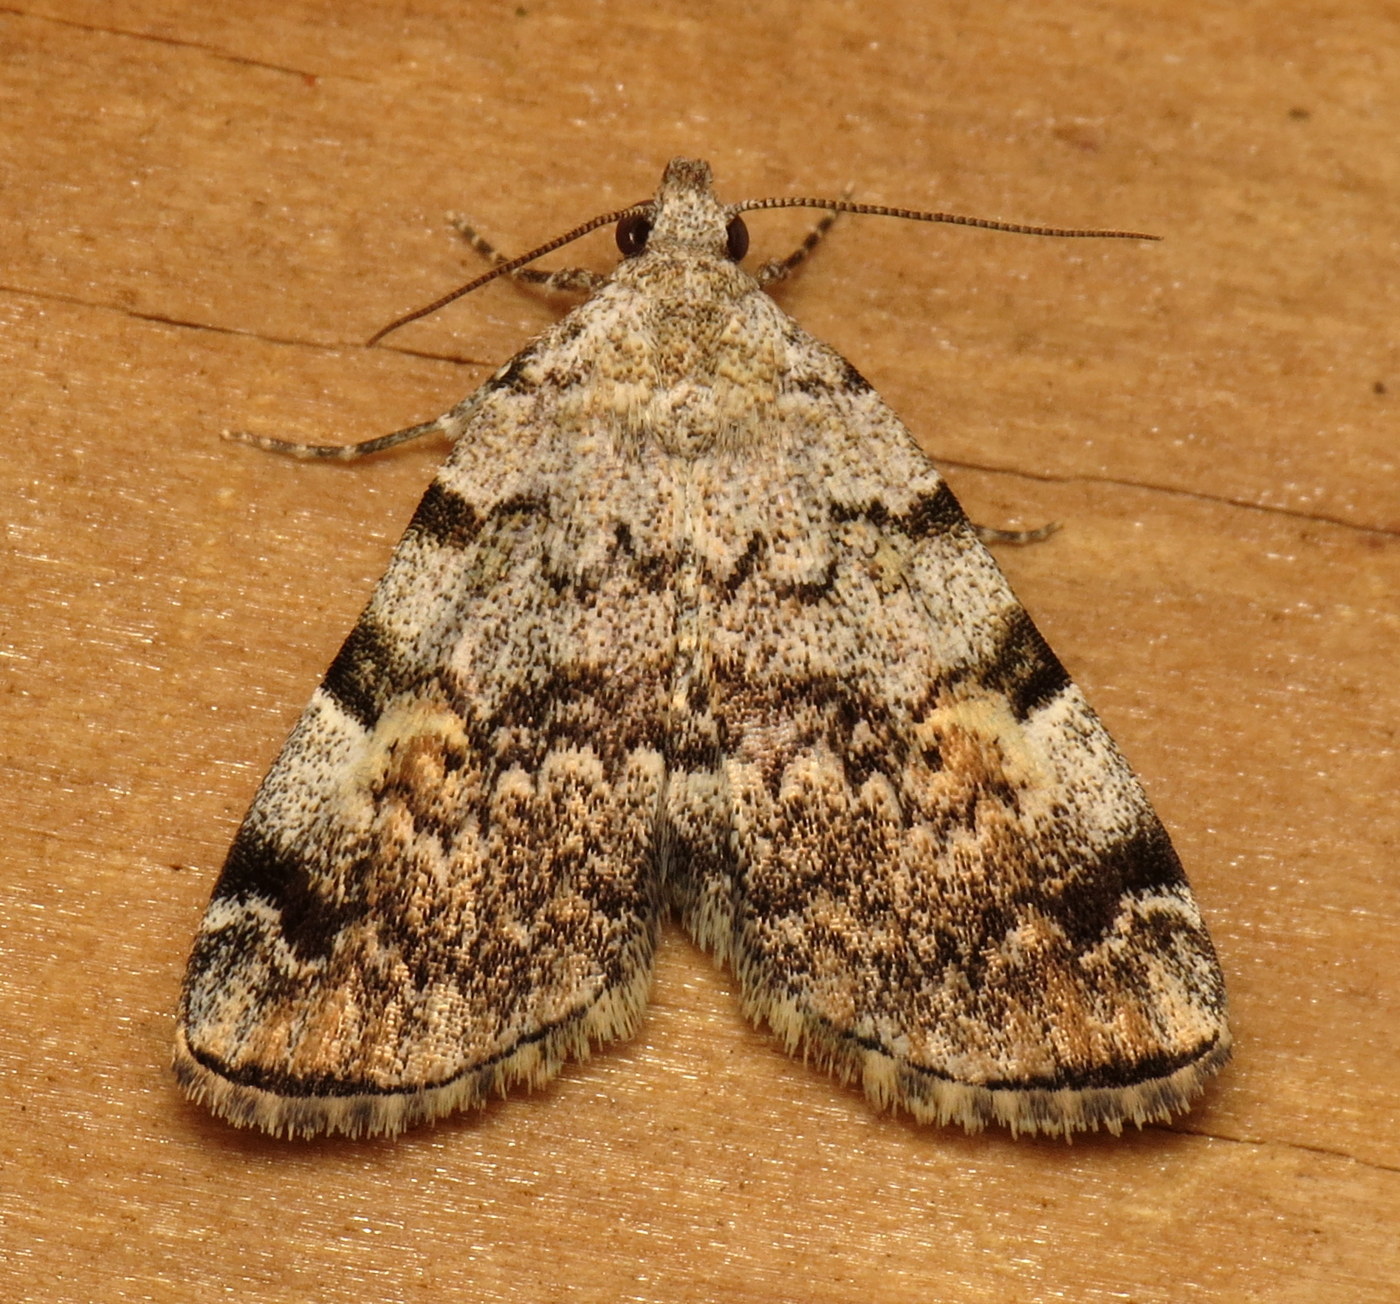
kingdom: Animalia
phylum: Arthropoda
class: Insecta
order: Lepidoptera
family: Erebidae
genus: Idia
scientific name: Idia americalis
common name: American idia moth
